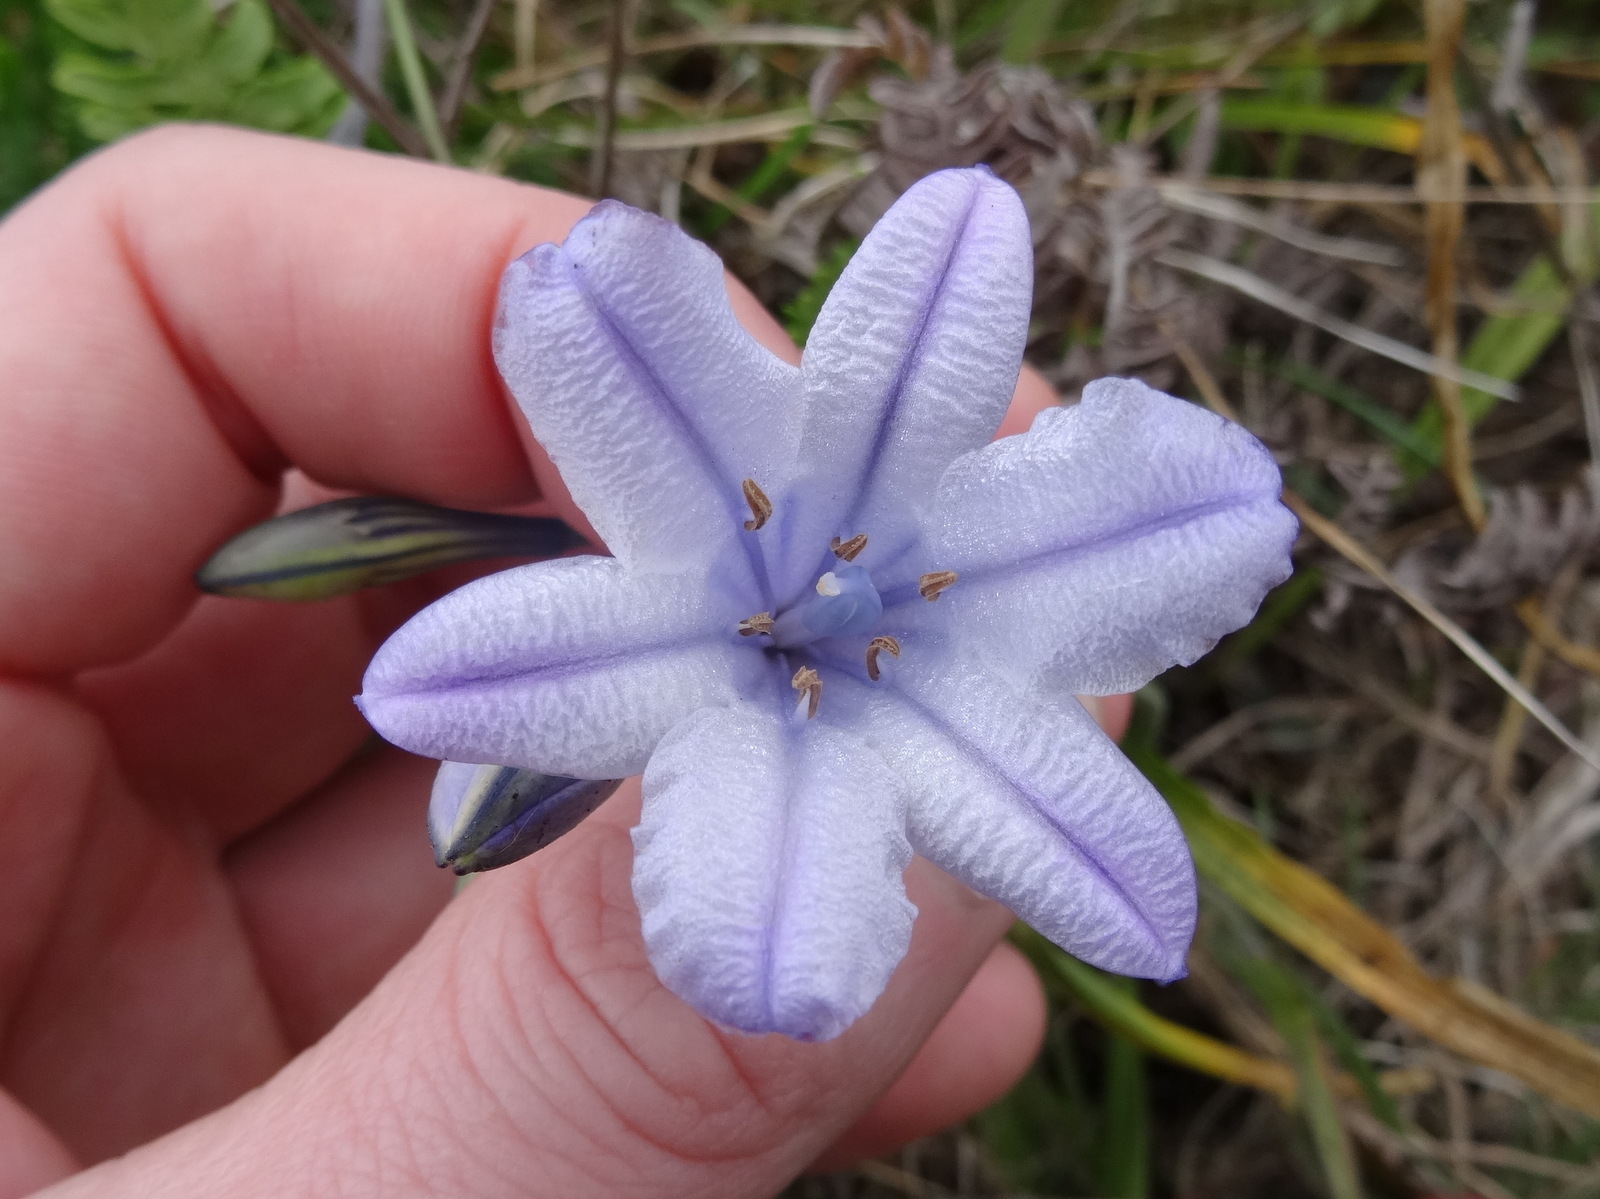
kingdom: Plantae
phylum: Tracheophyta
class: Liliopsida
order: Asparagales
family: Asparagaceae
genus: Triteleia
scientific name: Triteleia laxa
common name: Triplet-lily
